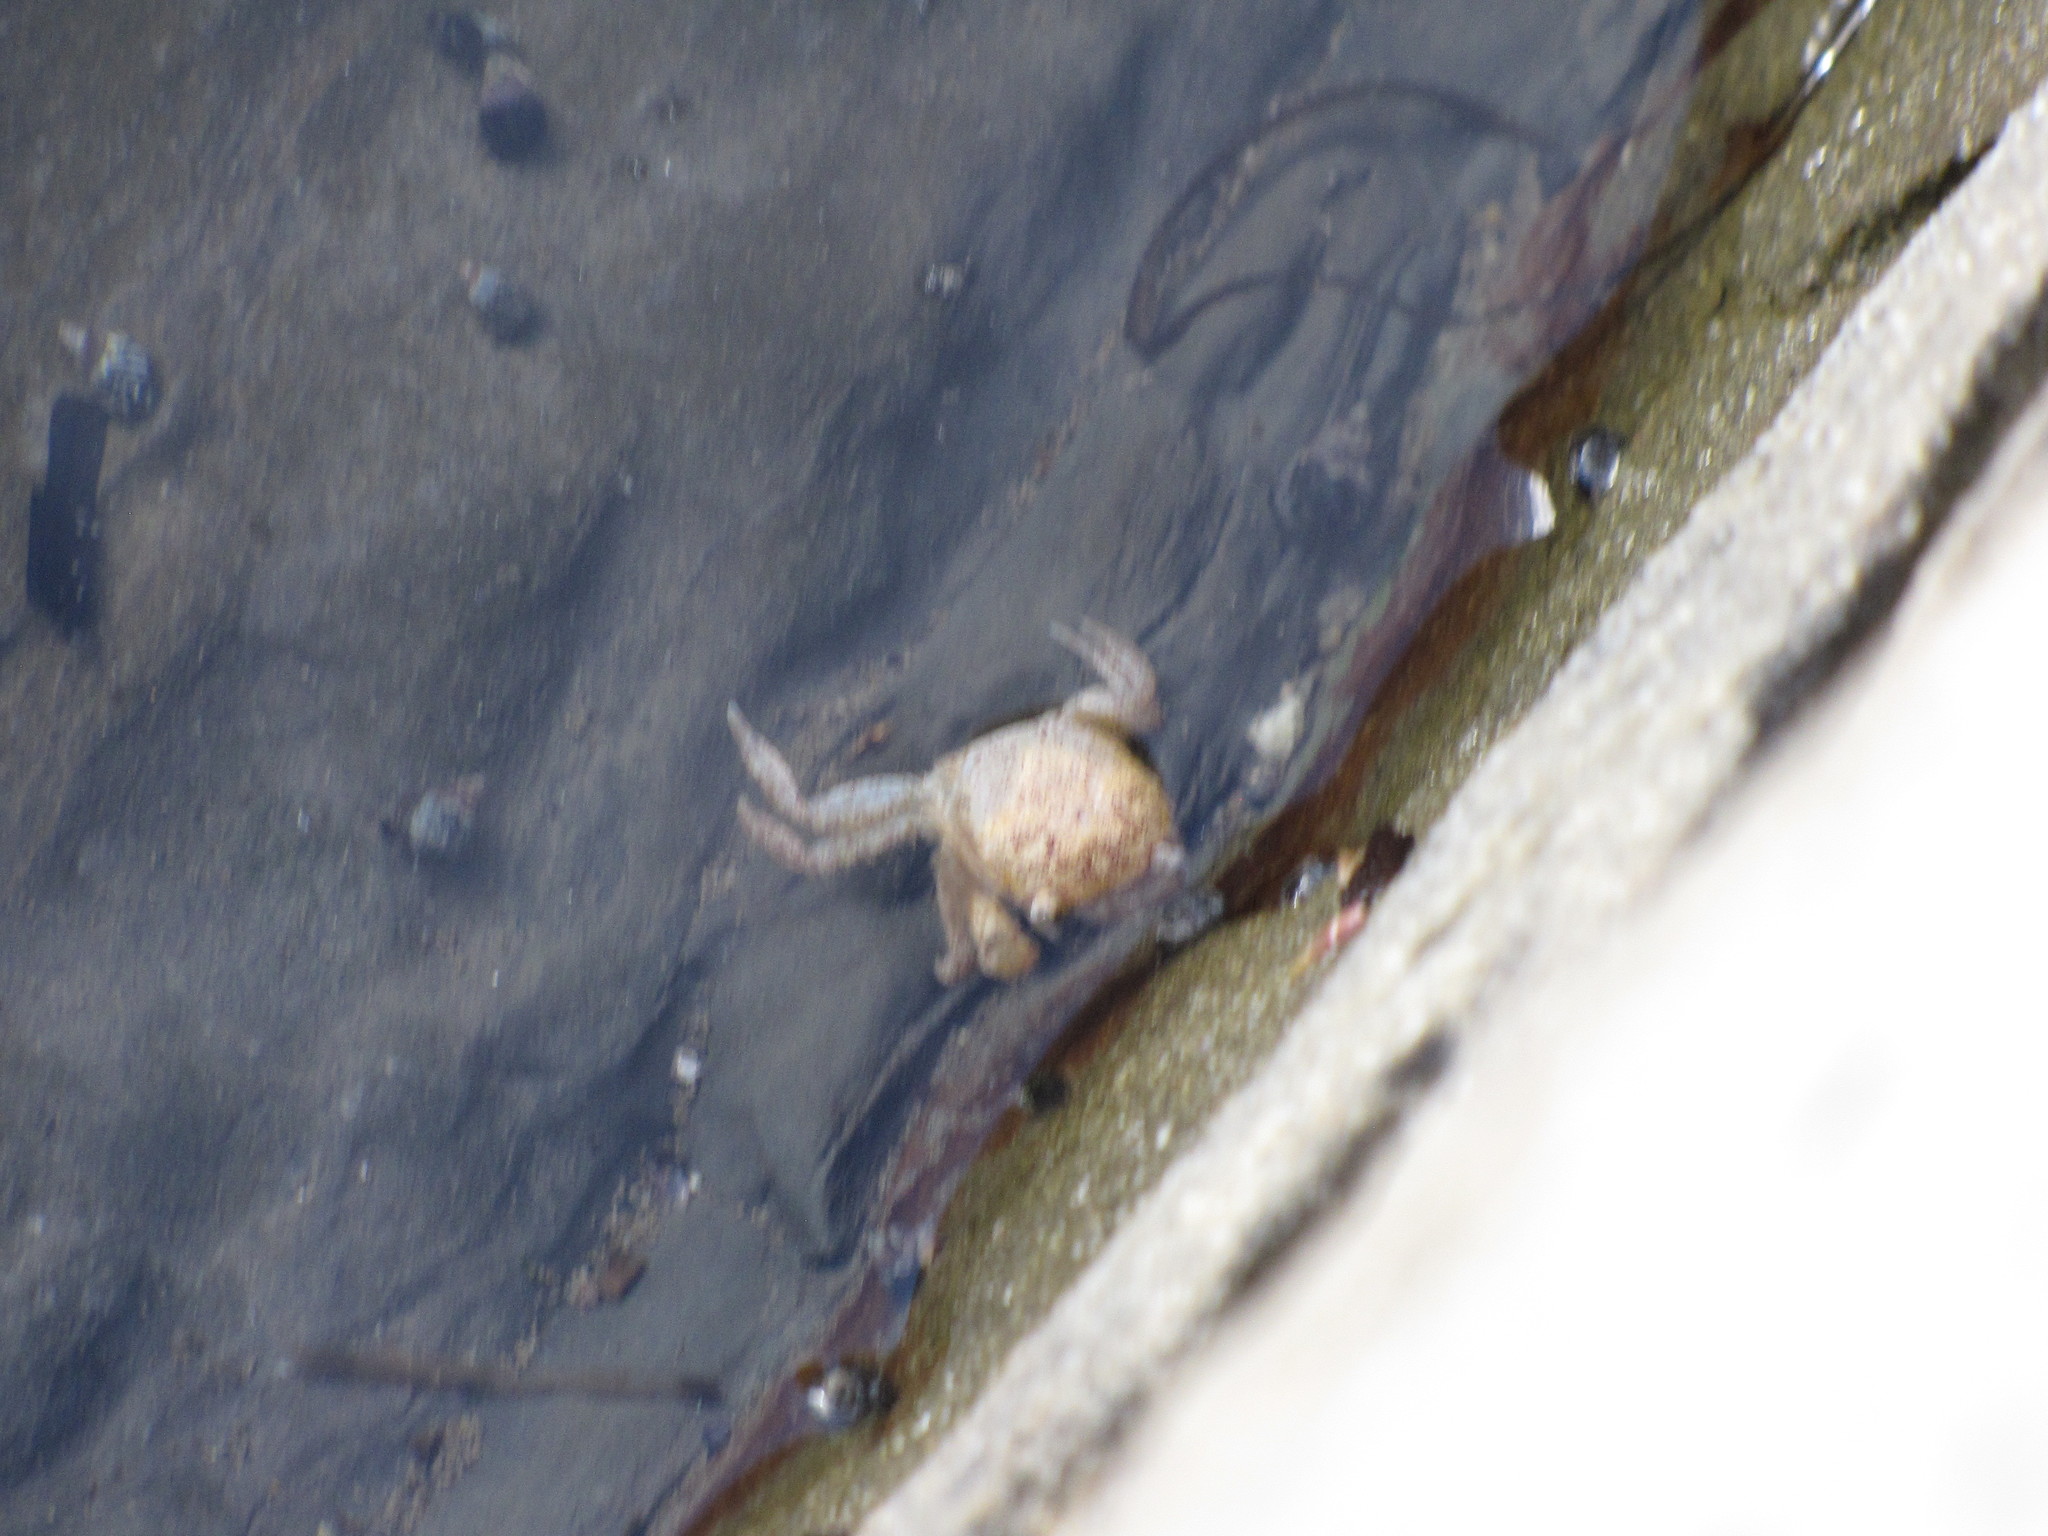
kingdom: Animalia
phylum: Arthropoda
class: Malacostraca
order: Decapoda
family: Varunidae
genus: Hemigrapsus
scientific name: Hemigrapsus oregonensis
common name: Yellow shore crab
